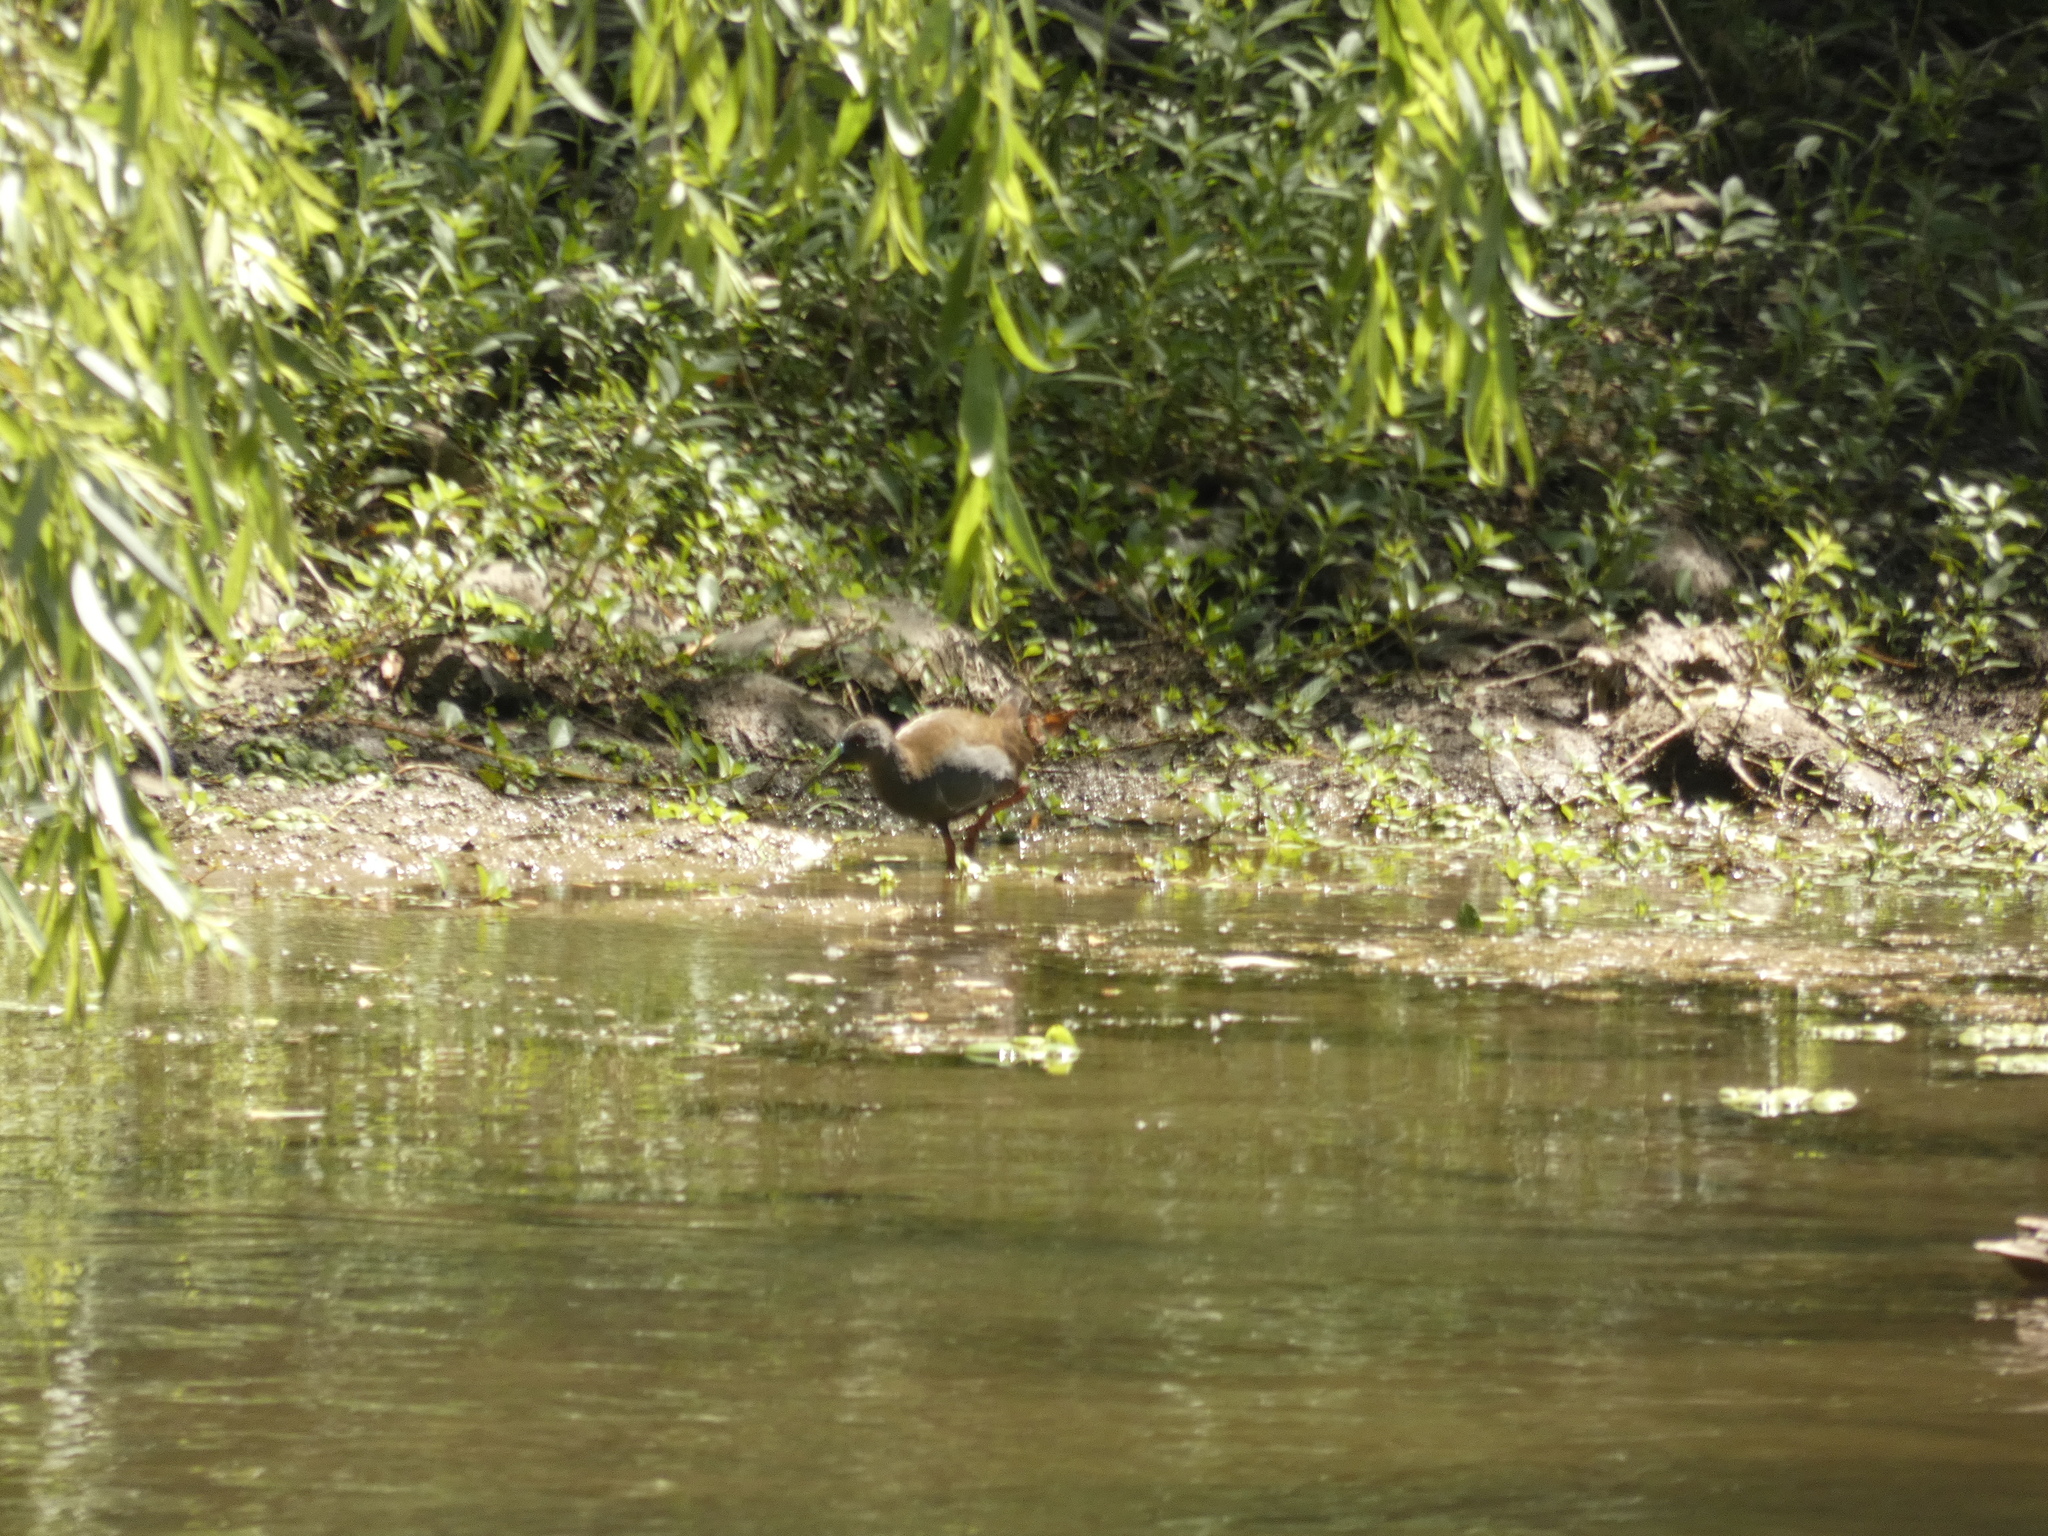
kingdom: Animalia
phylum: Chordata
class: Aves
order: Gruiformes
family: Rallidae
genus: Pardirallus
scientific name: Pardirallus sanguinolentus
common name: Plumbeous rail
